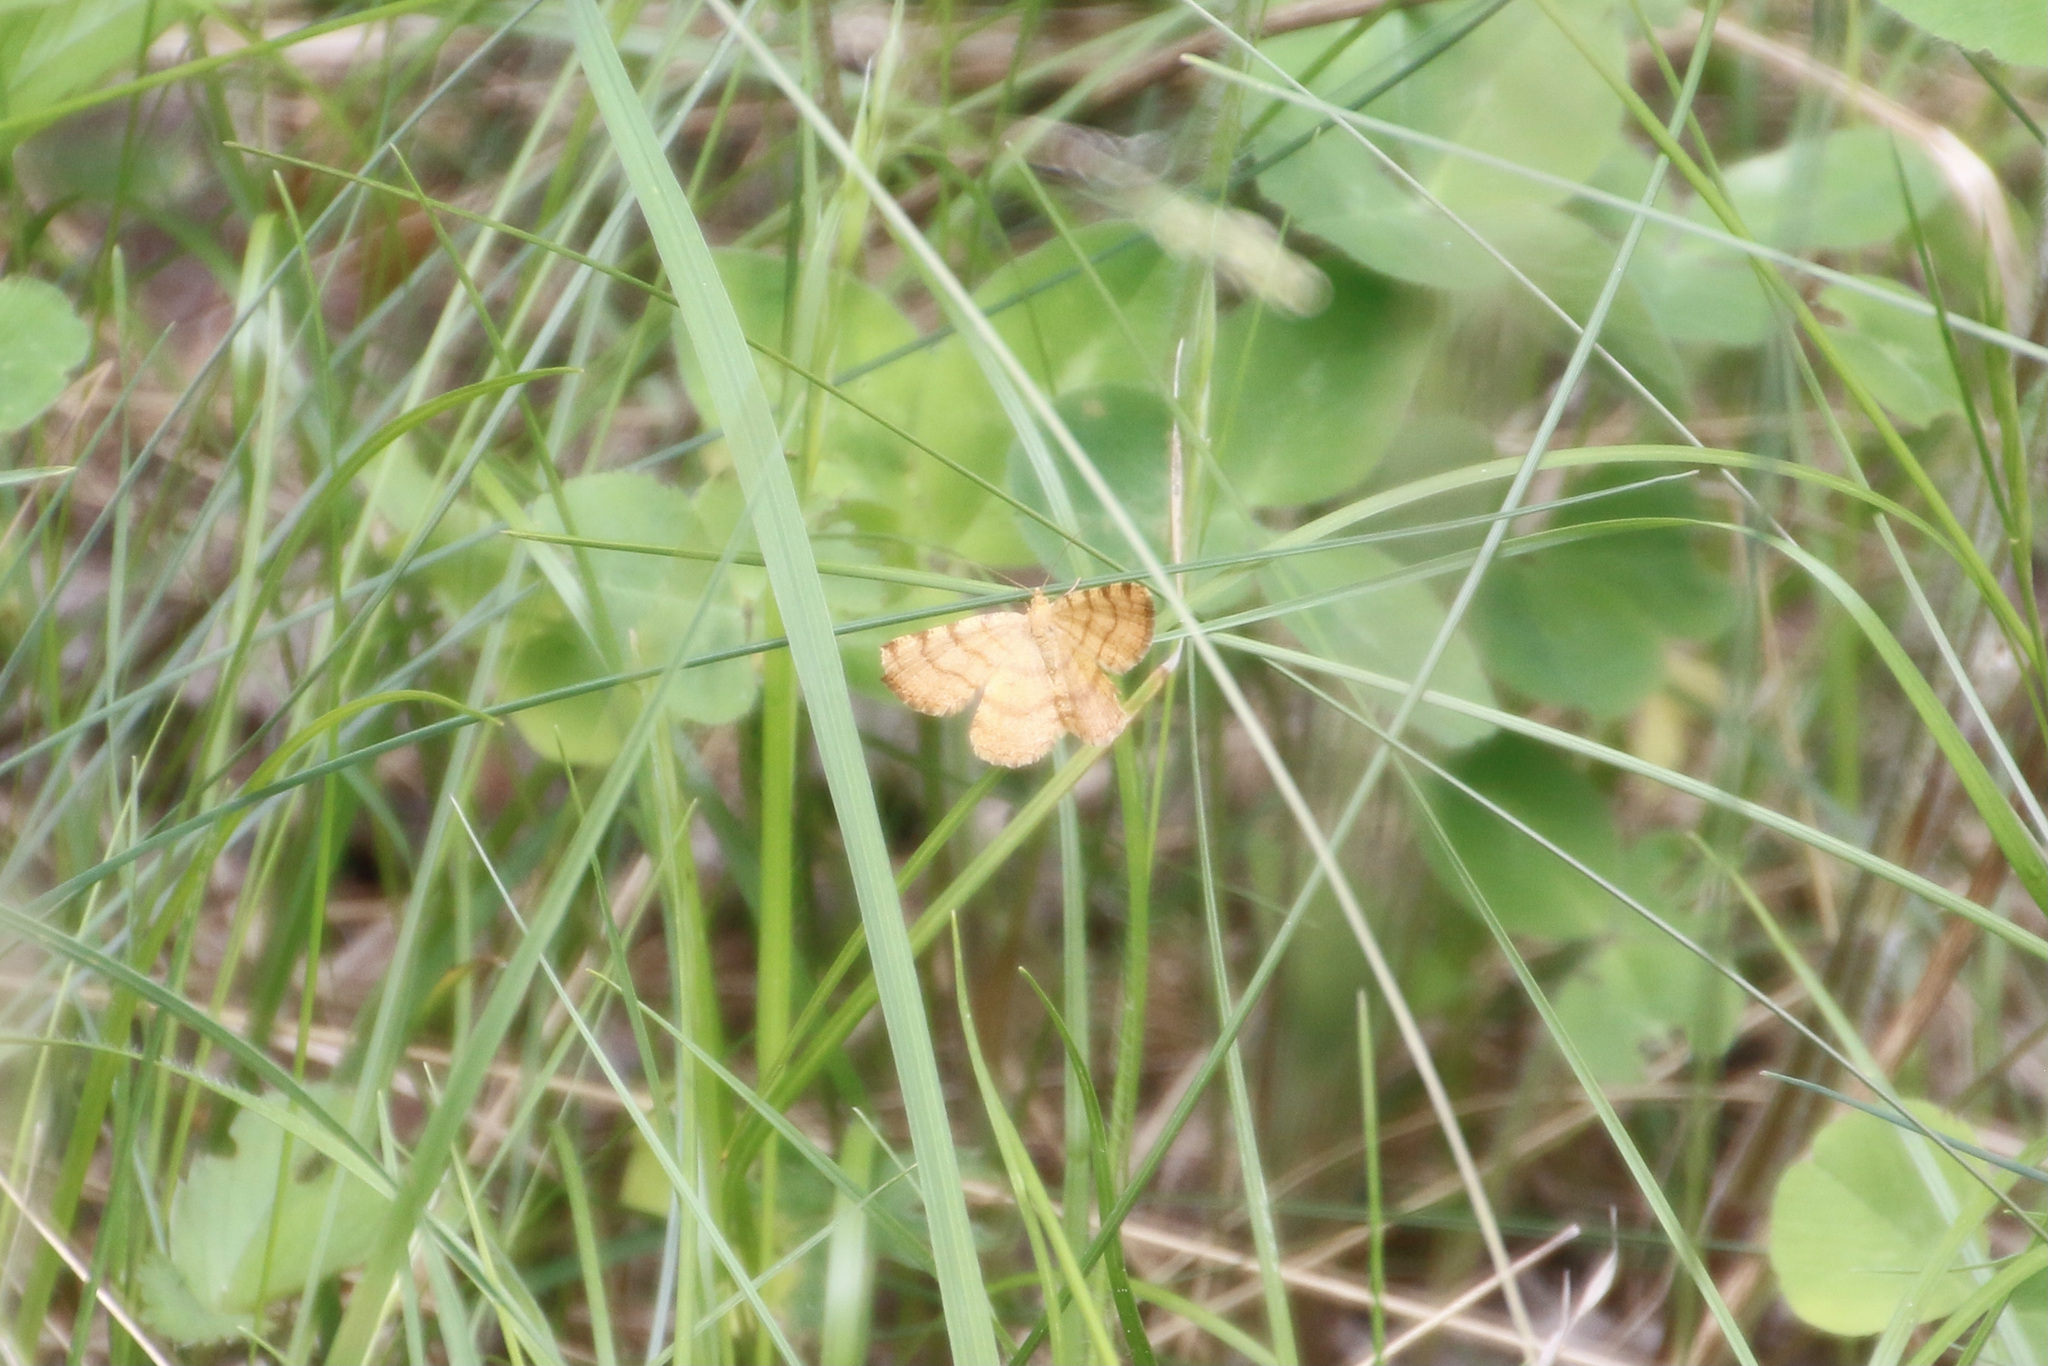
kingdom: Animalia
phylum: Arthropoda
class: Insecta
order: Lepidoptera
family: Geometridae
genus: Macaria
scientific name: Macaria brunneata
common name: Rannoch looper
